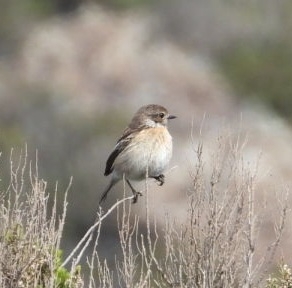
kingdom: Animalia
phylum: Chordata
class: Aves
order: Passeriformes
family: Muscicapidae
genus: Saxicola
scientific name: Saxicola rubicola
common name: European stonechat
